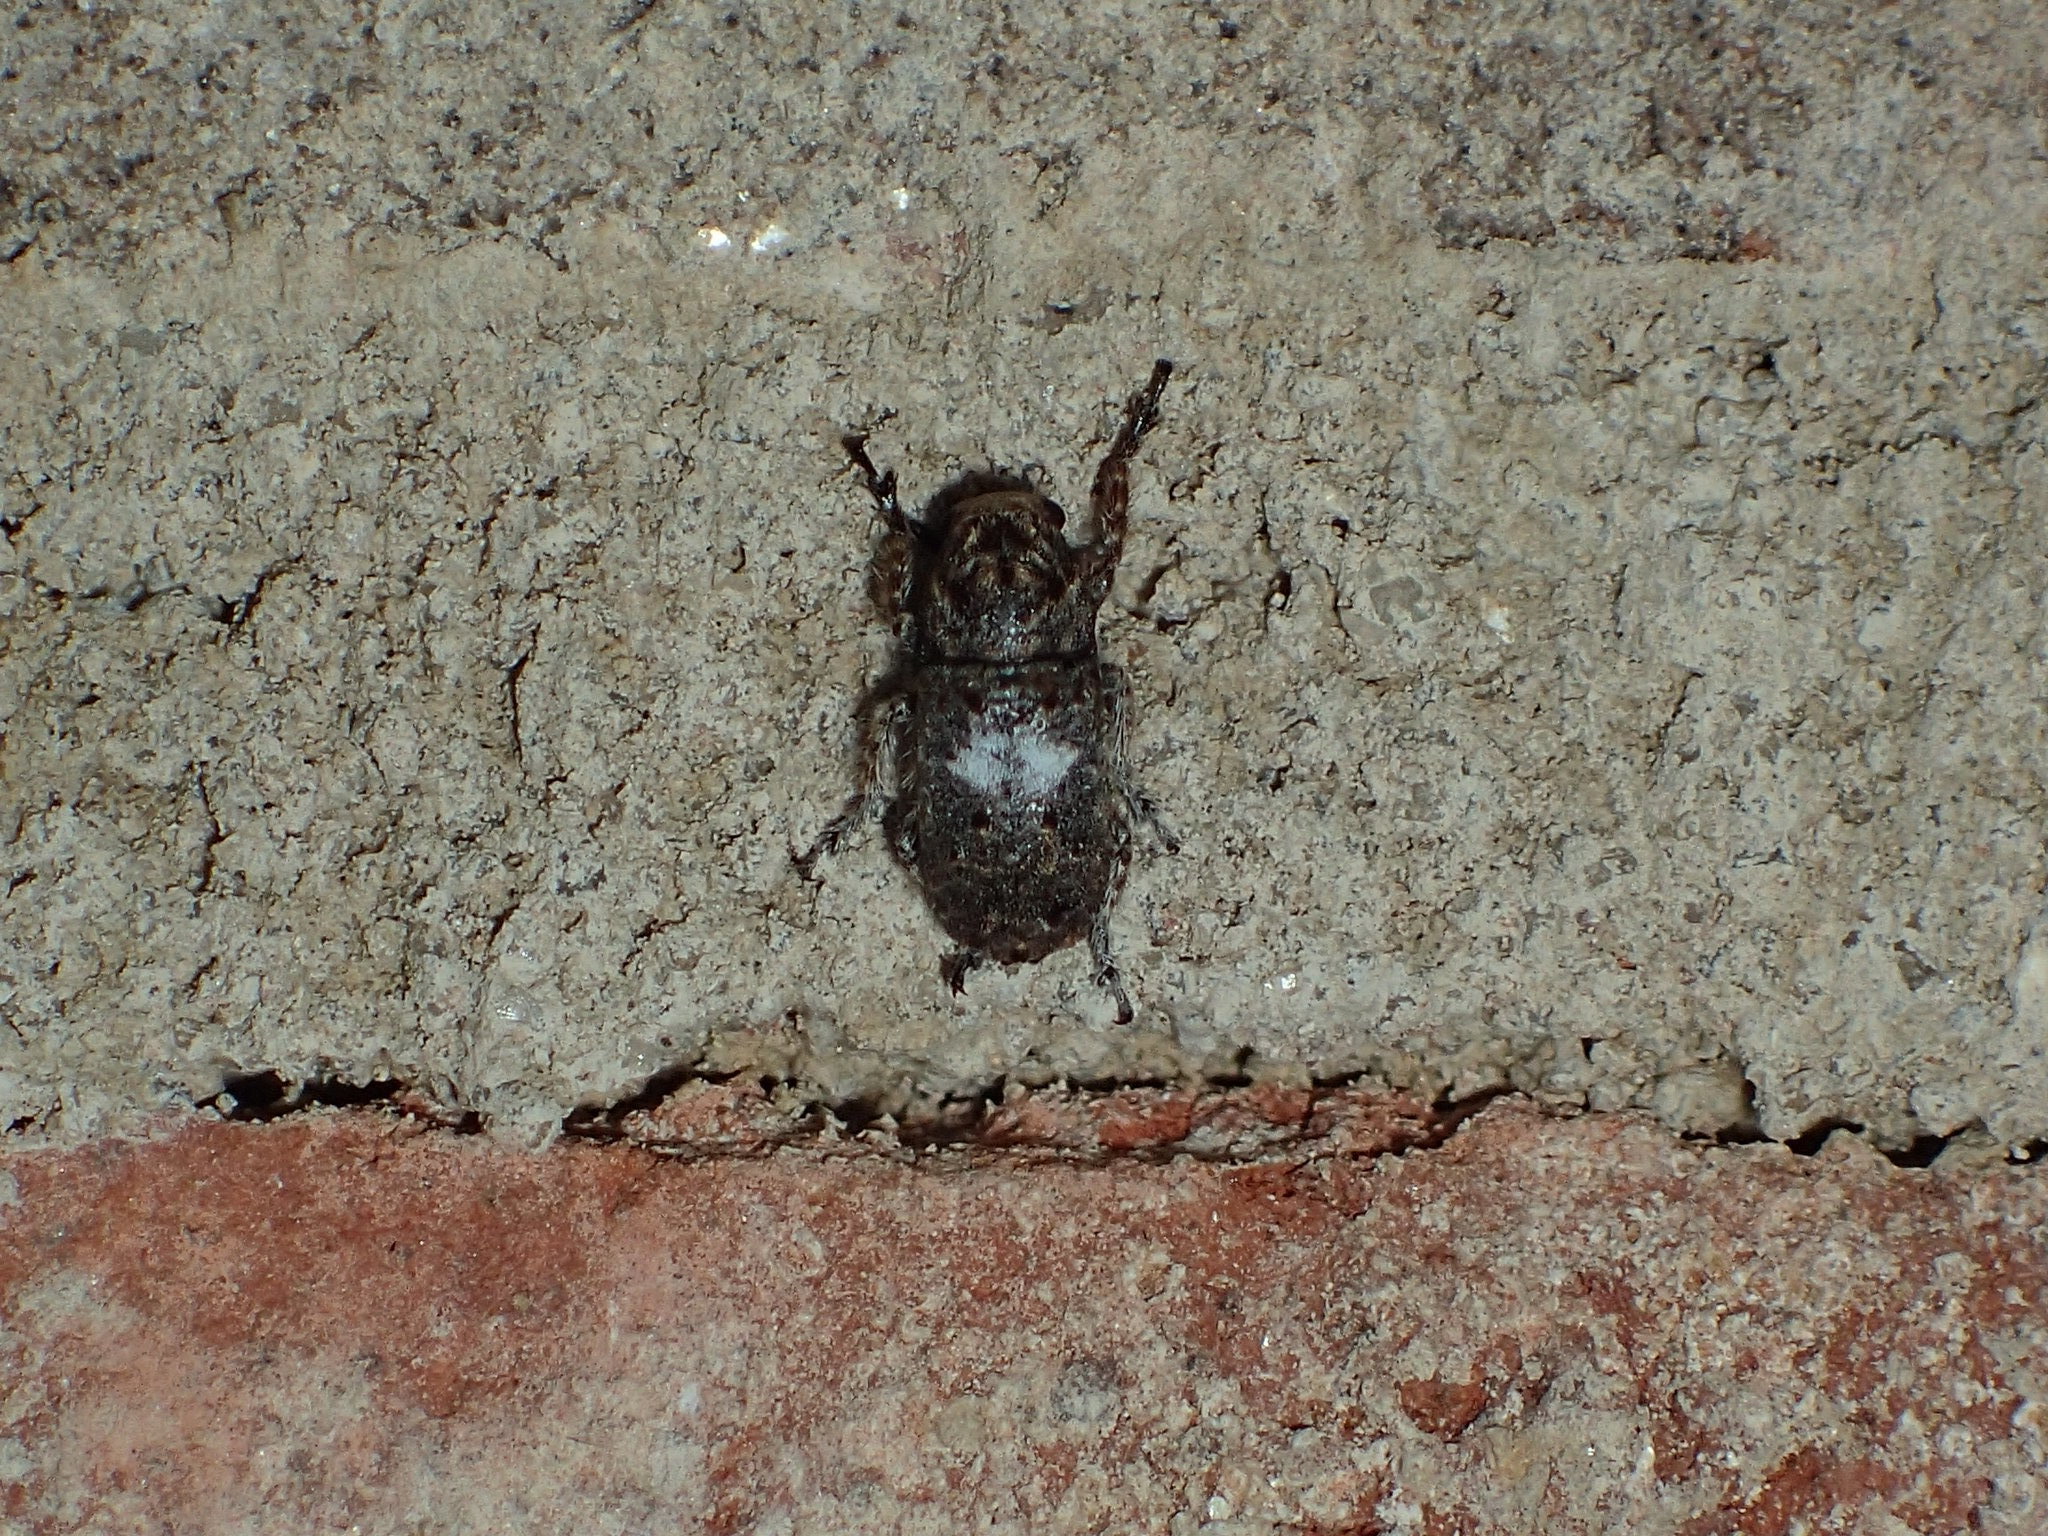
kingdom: Animalia
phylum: Arthropoda
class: Insecta
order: Coleoptera
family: Anthribidae
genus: Toxonotus
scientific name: Toxonotus cornutus
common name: Fungus weevil
